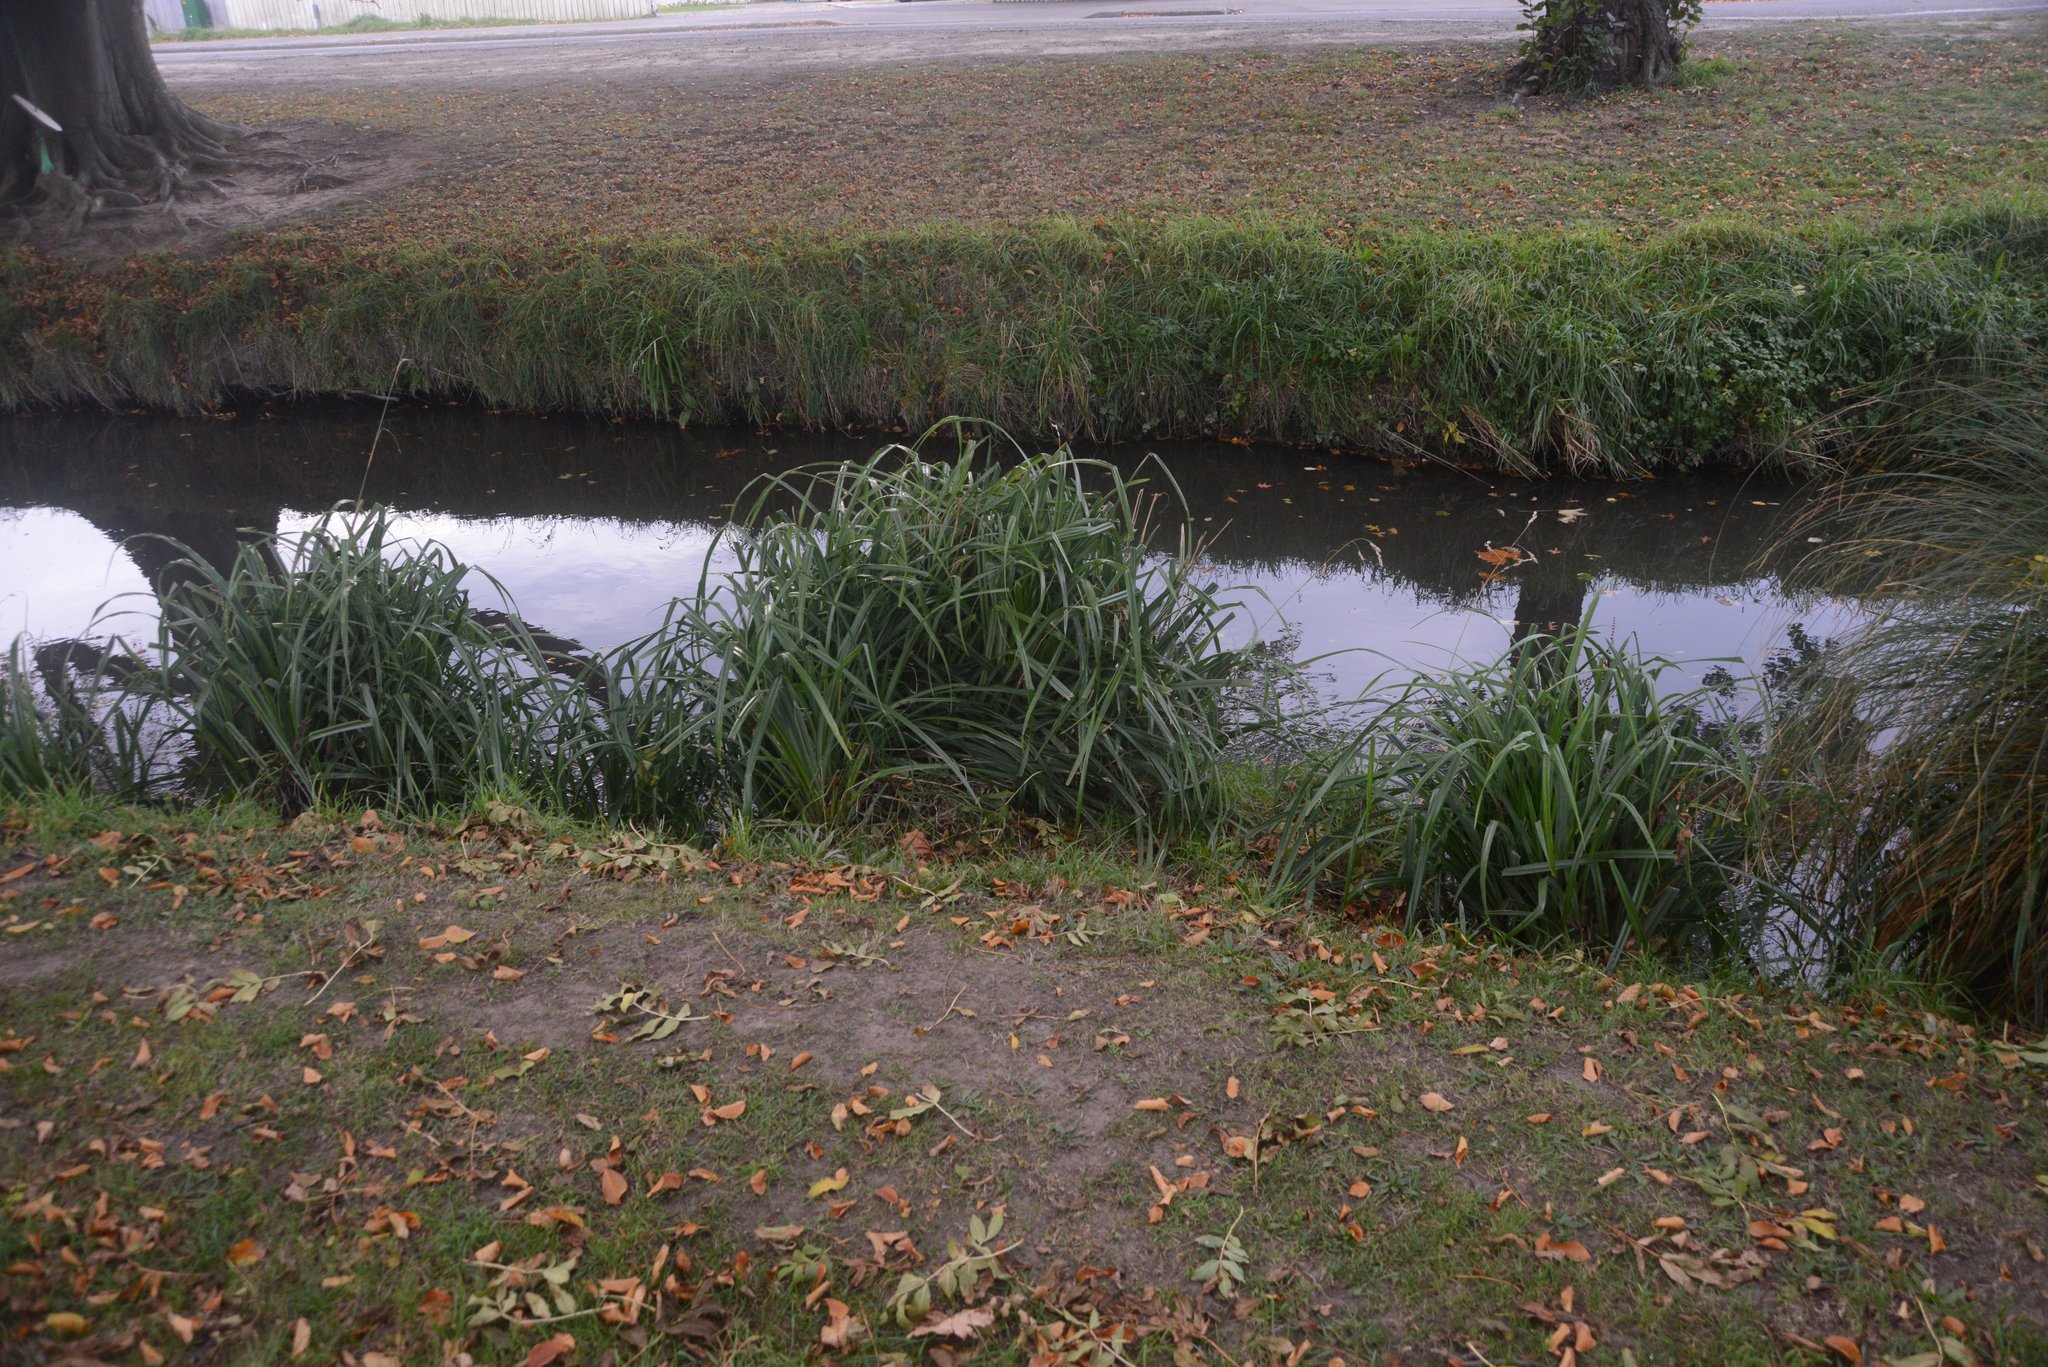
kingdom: Plantae
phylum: Tracheophyta
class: Liliopsida
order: Poales
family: Cyperaceae
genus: Carex
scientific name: Carex pendula
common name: Pendulous sedge
